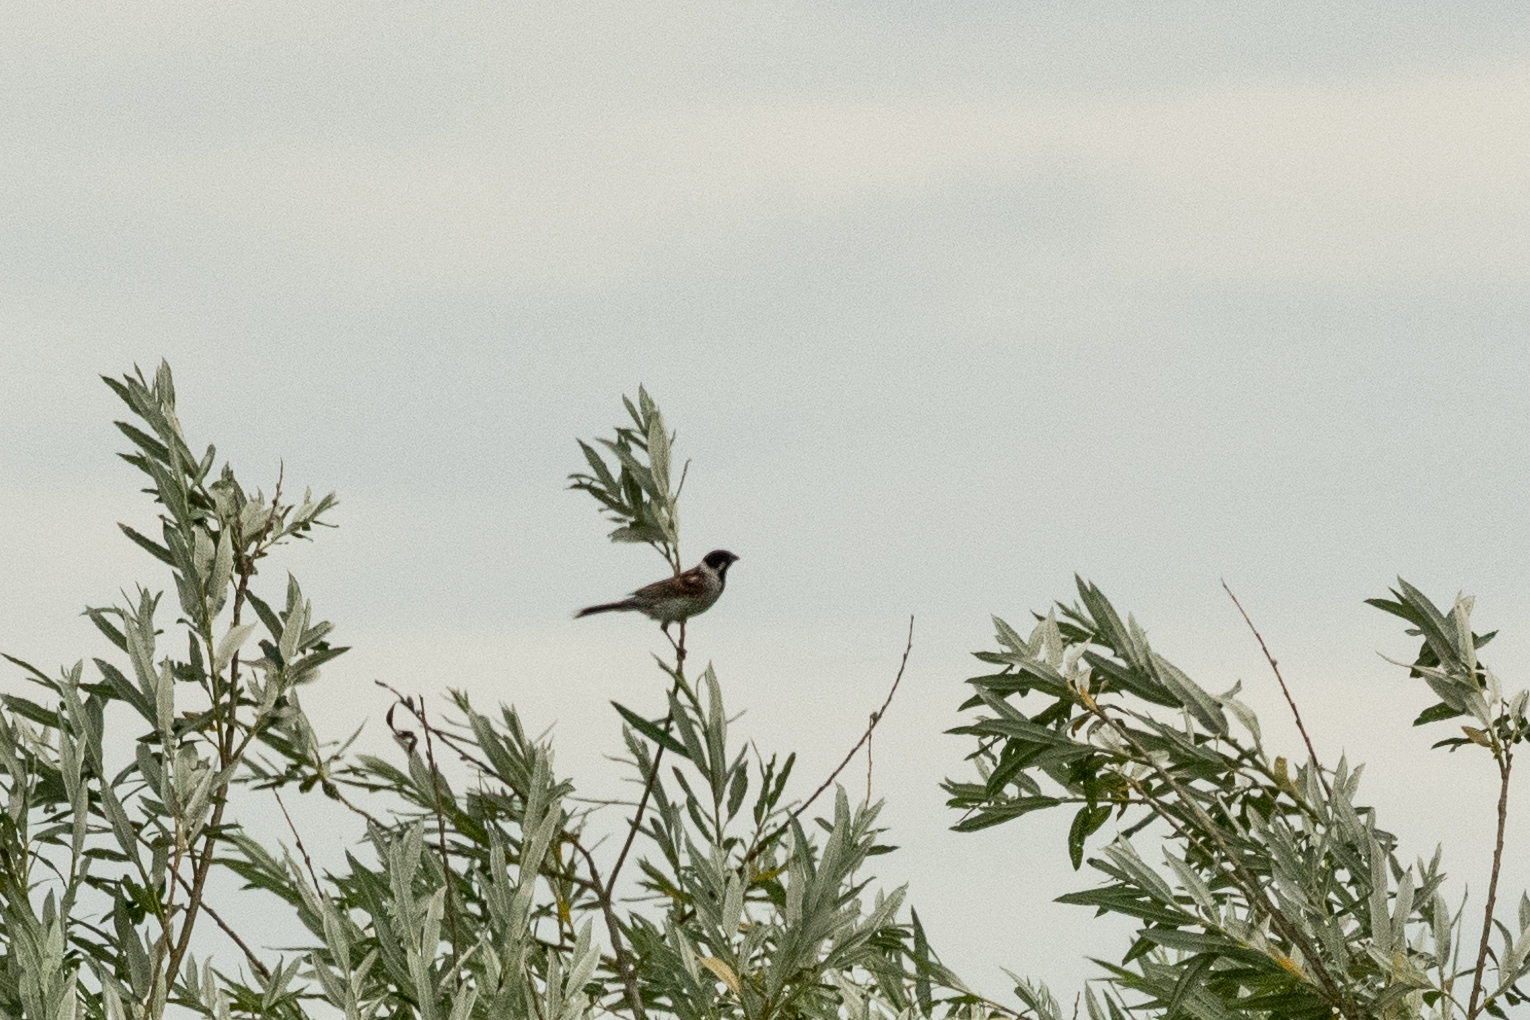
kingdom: Animalia
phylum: Chordata
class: Aves
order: Passeriformes
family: Emberizidae
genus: Emberiza
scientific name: Emberiza schoeniclus
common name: Reed bunting
